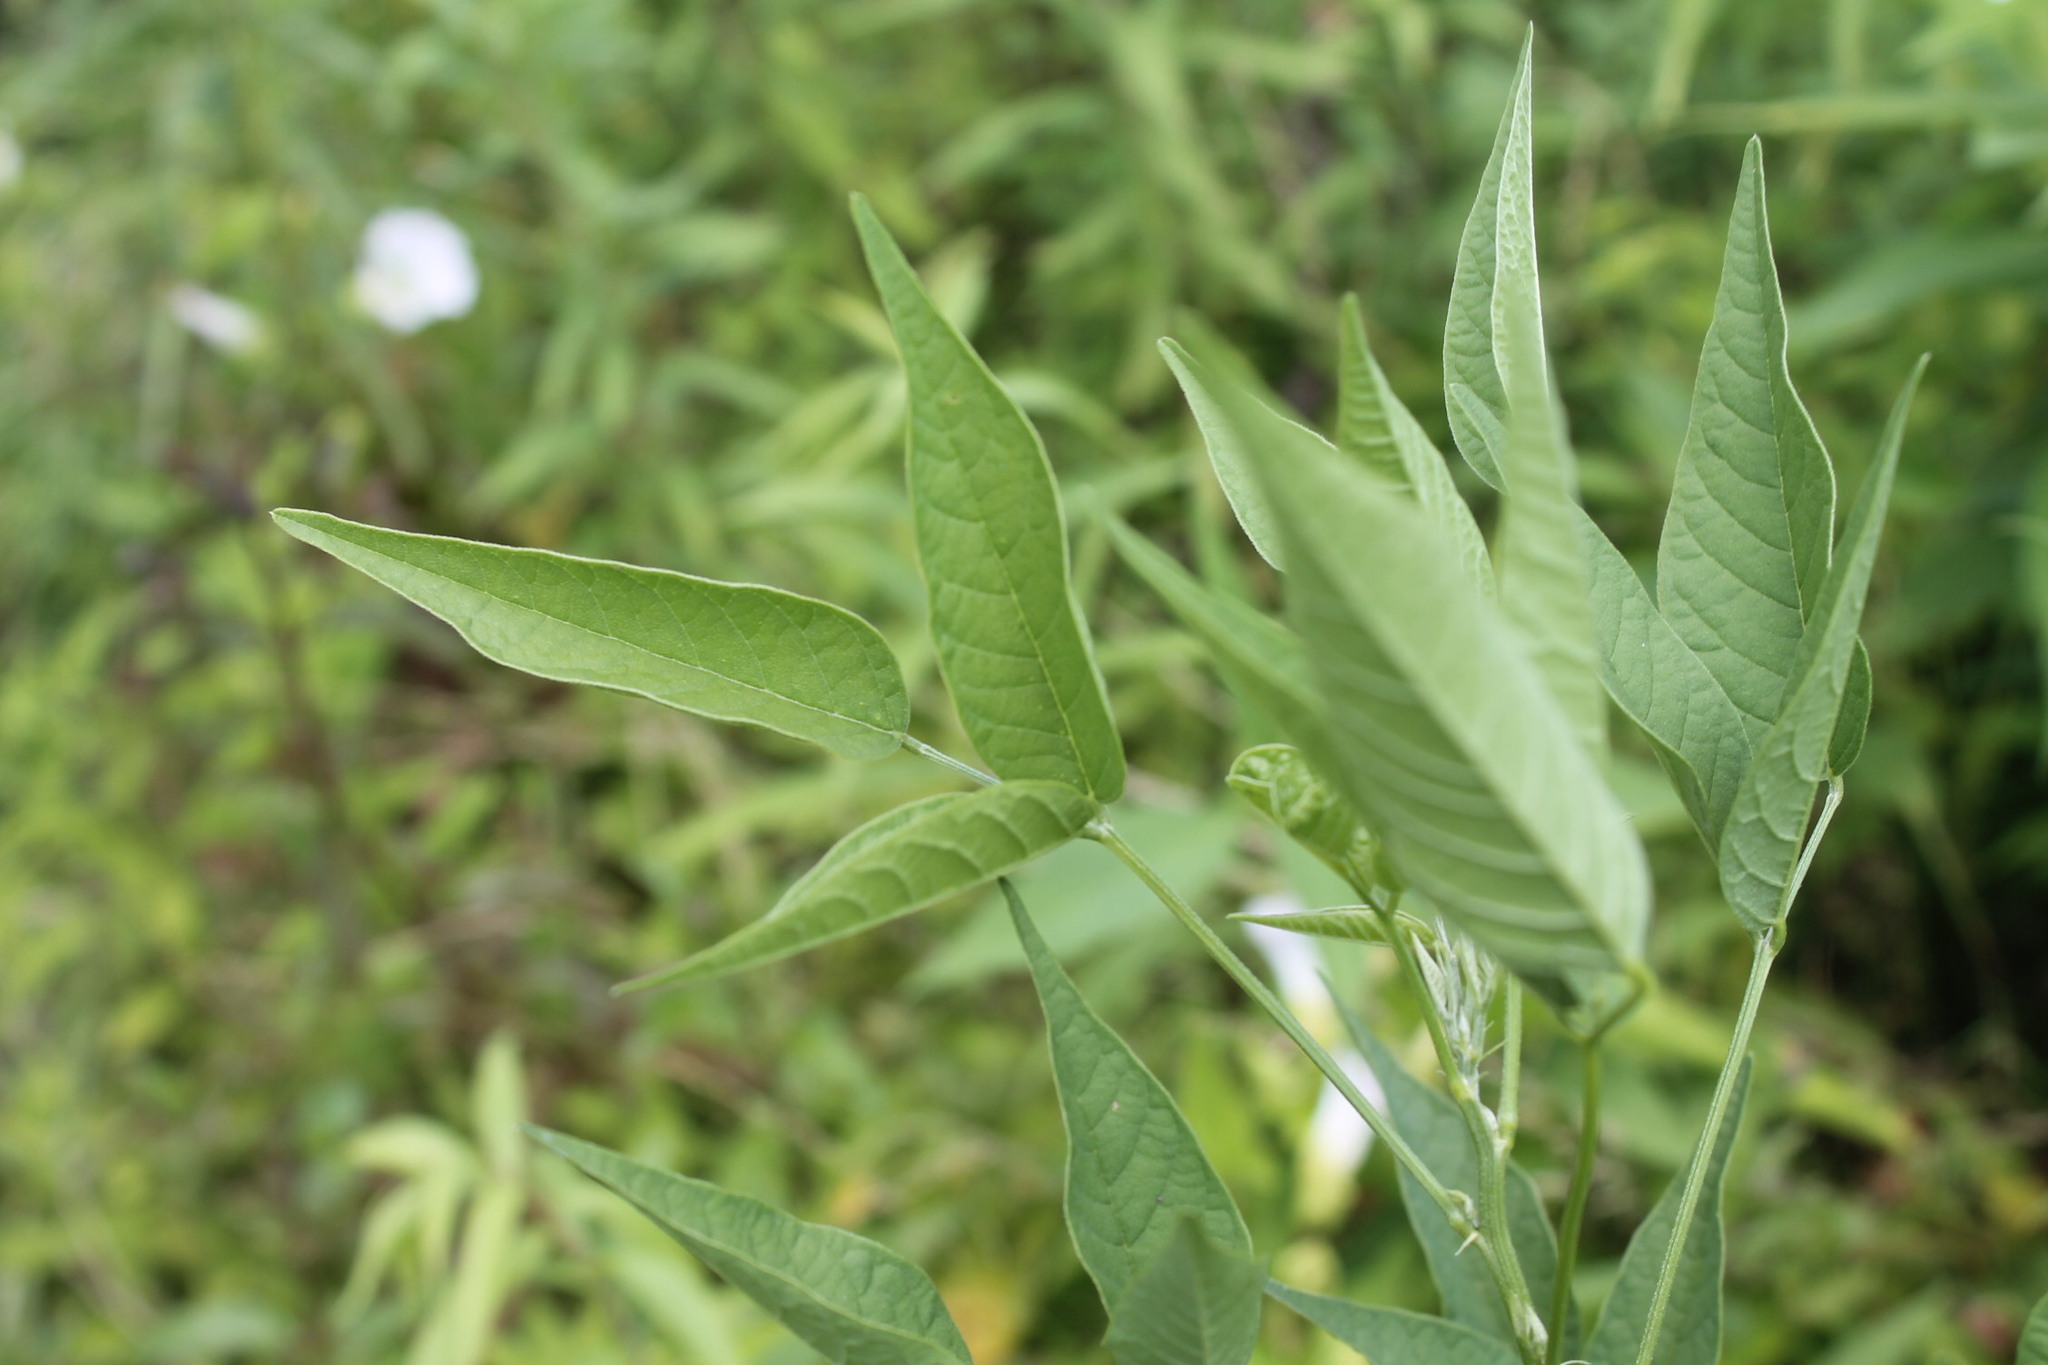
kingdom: Plantae
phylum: Tracheophyta
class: Magnoliopsida
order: Fabales
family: Fabaceae
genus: Orbexilum
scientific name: Orbexilum onobrychis
